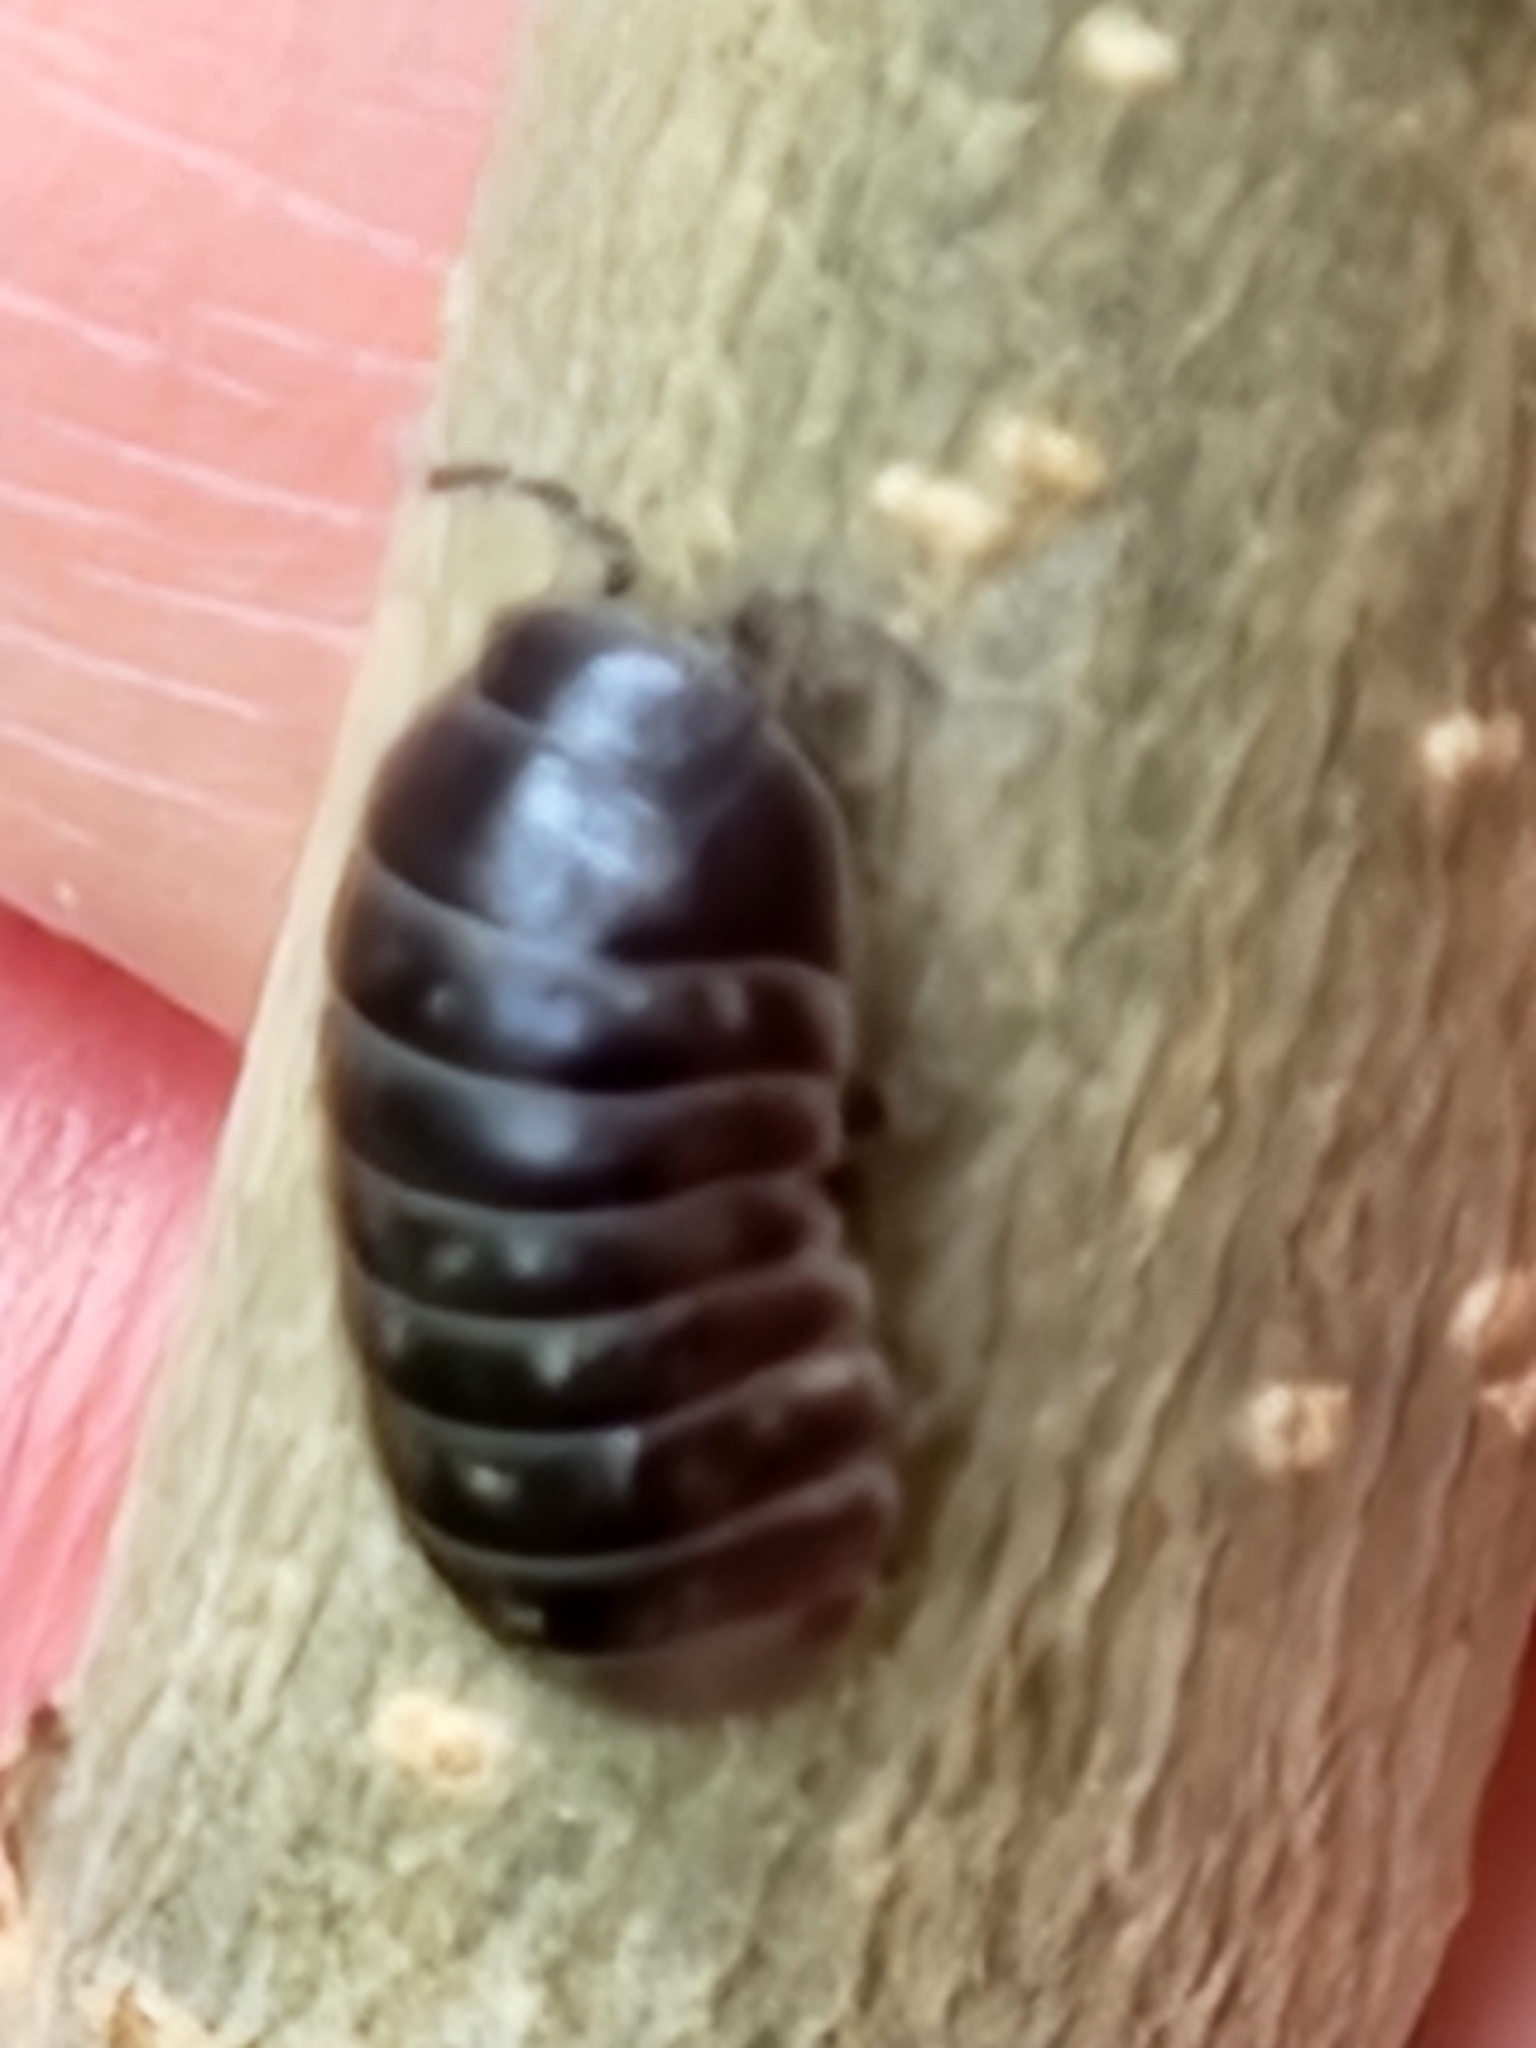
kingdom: Animalia
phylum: Arthropoda
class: Malacostraca
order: Isopoda
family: Armadillidiidae
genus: Armadillidium
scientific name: Armadillidium vulgare
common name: Common pill woodlouse
